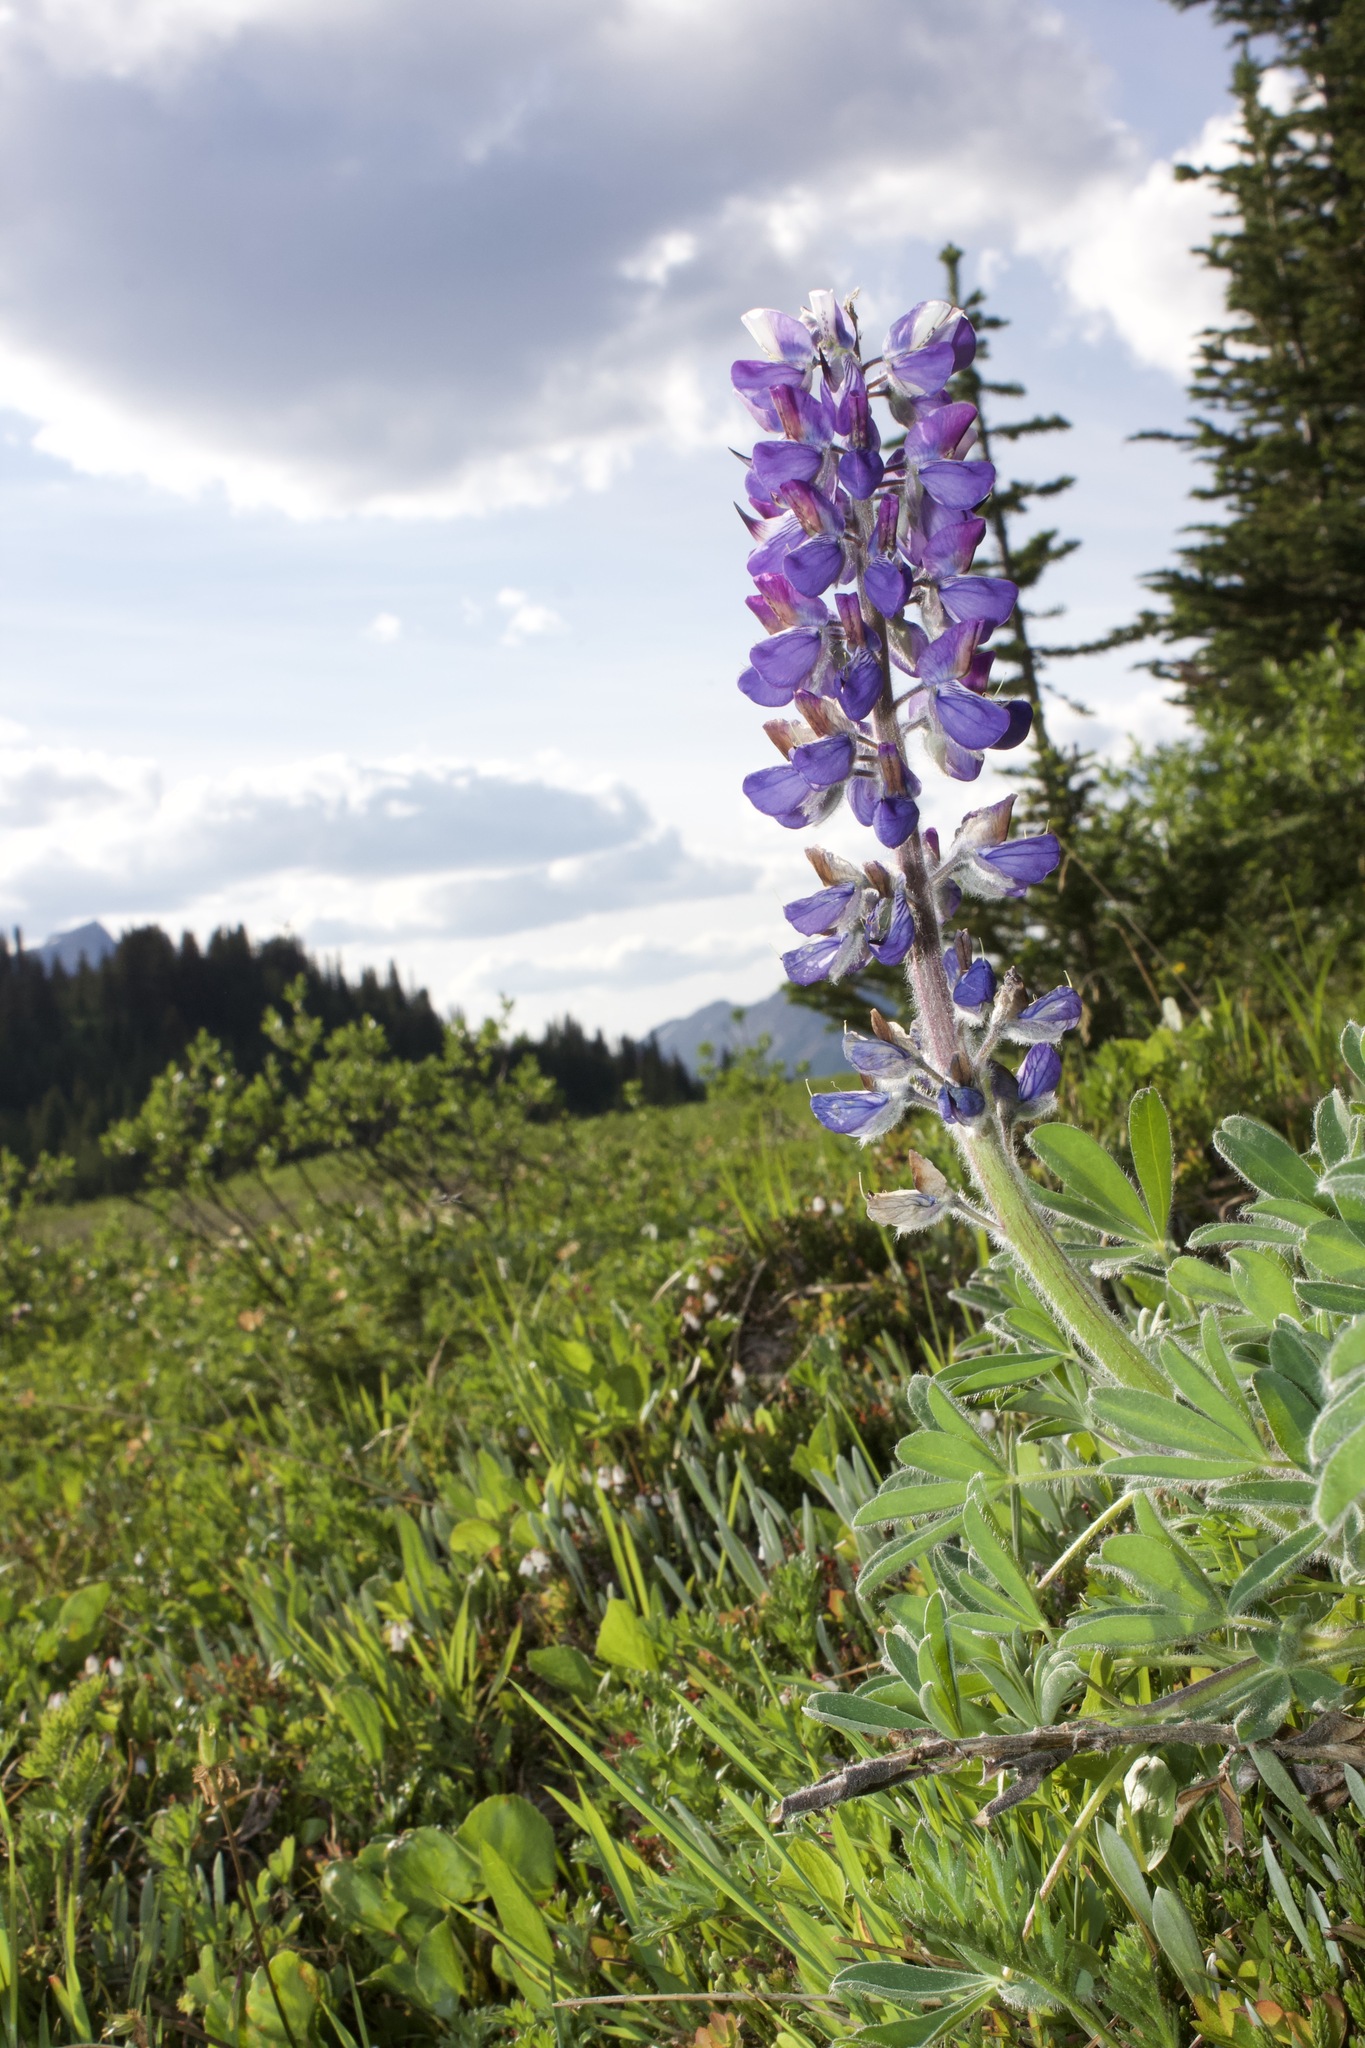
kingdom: Plantae
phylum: Tracheophyta
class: Magnoliopsida
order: Fabales
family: Fabaceae
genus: Lupinus
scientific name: Lupinus nootkatensis
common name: Nootka lupine
